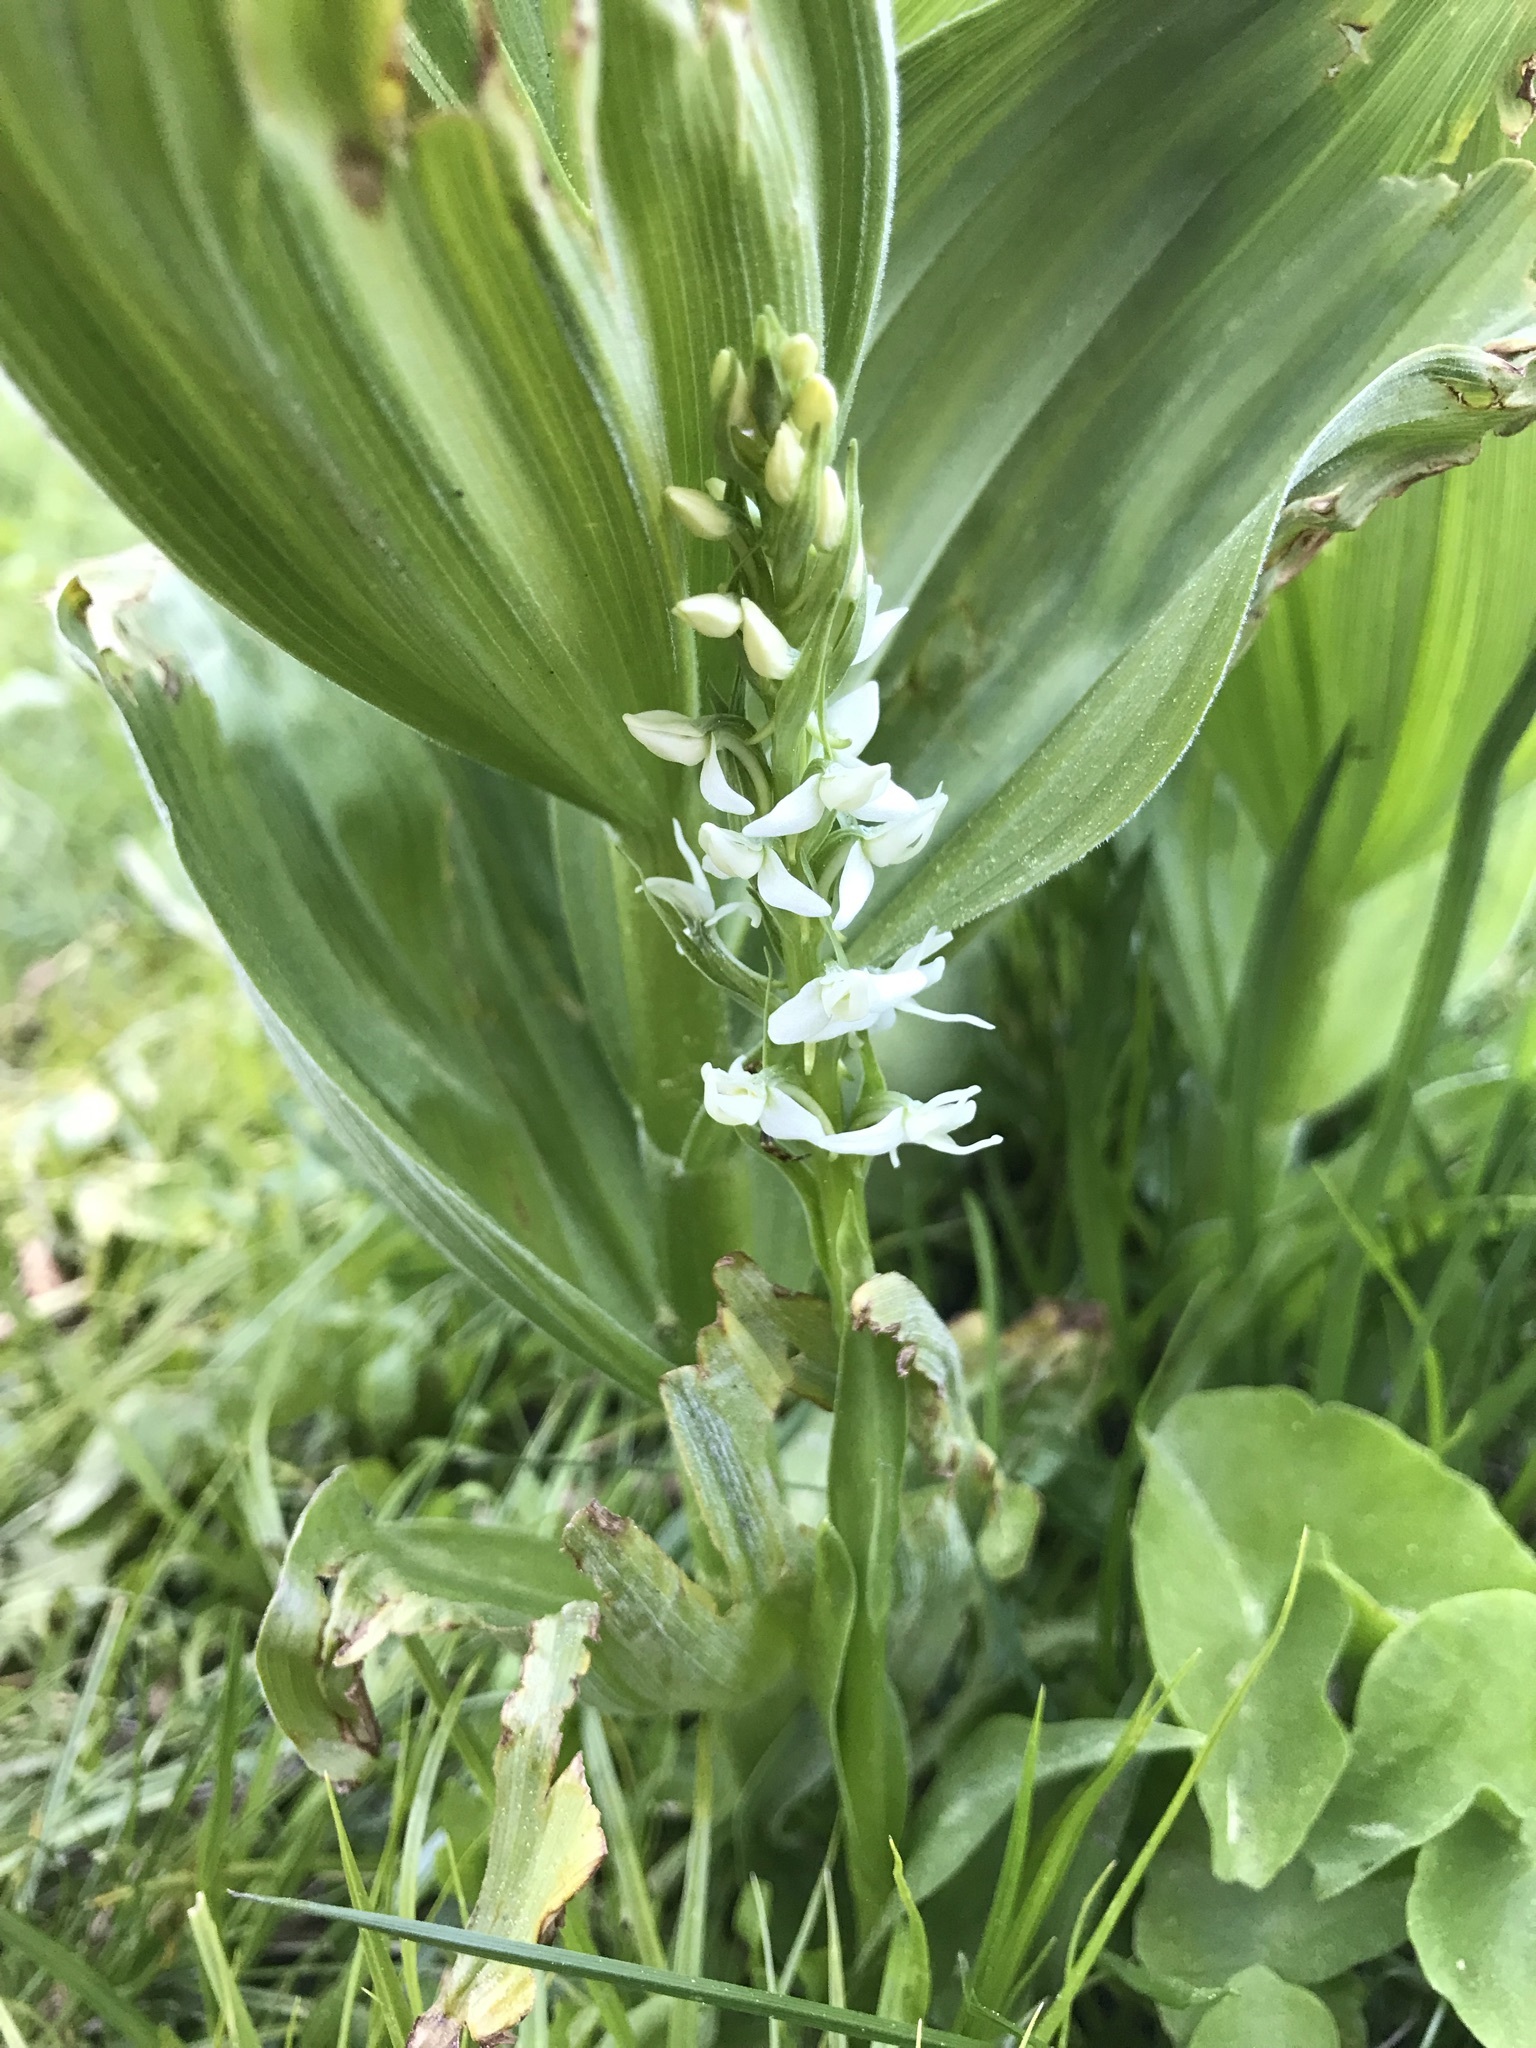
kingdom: Plantae
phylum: Tracheophyta
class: Liliopsida
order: Asparagales
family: Orchidaceae
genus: Platanthera
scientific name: Platanthera dilatata
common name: Bog candles
